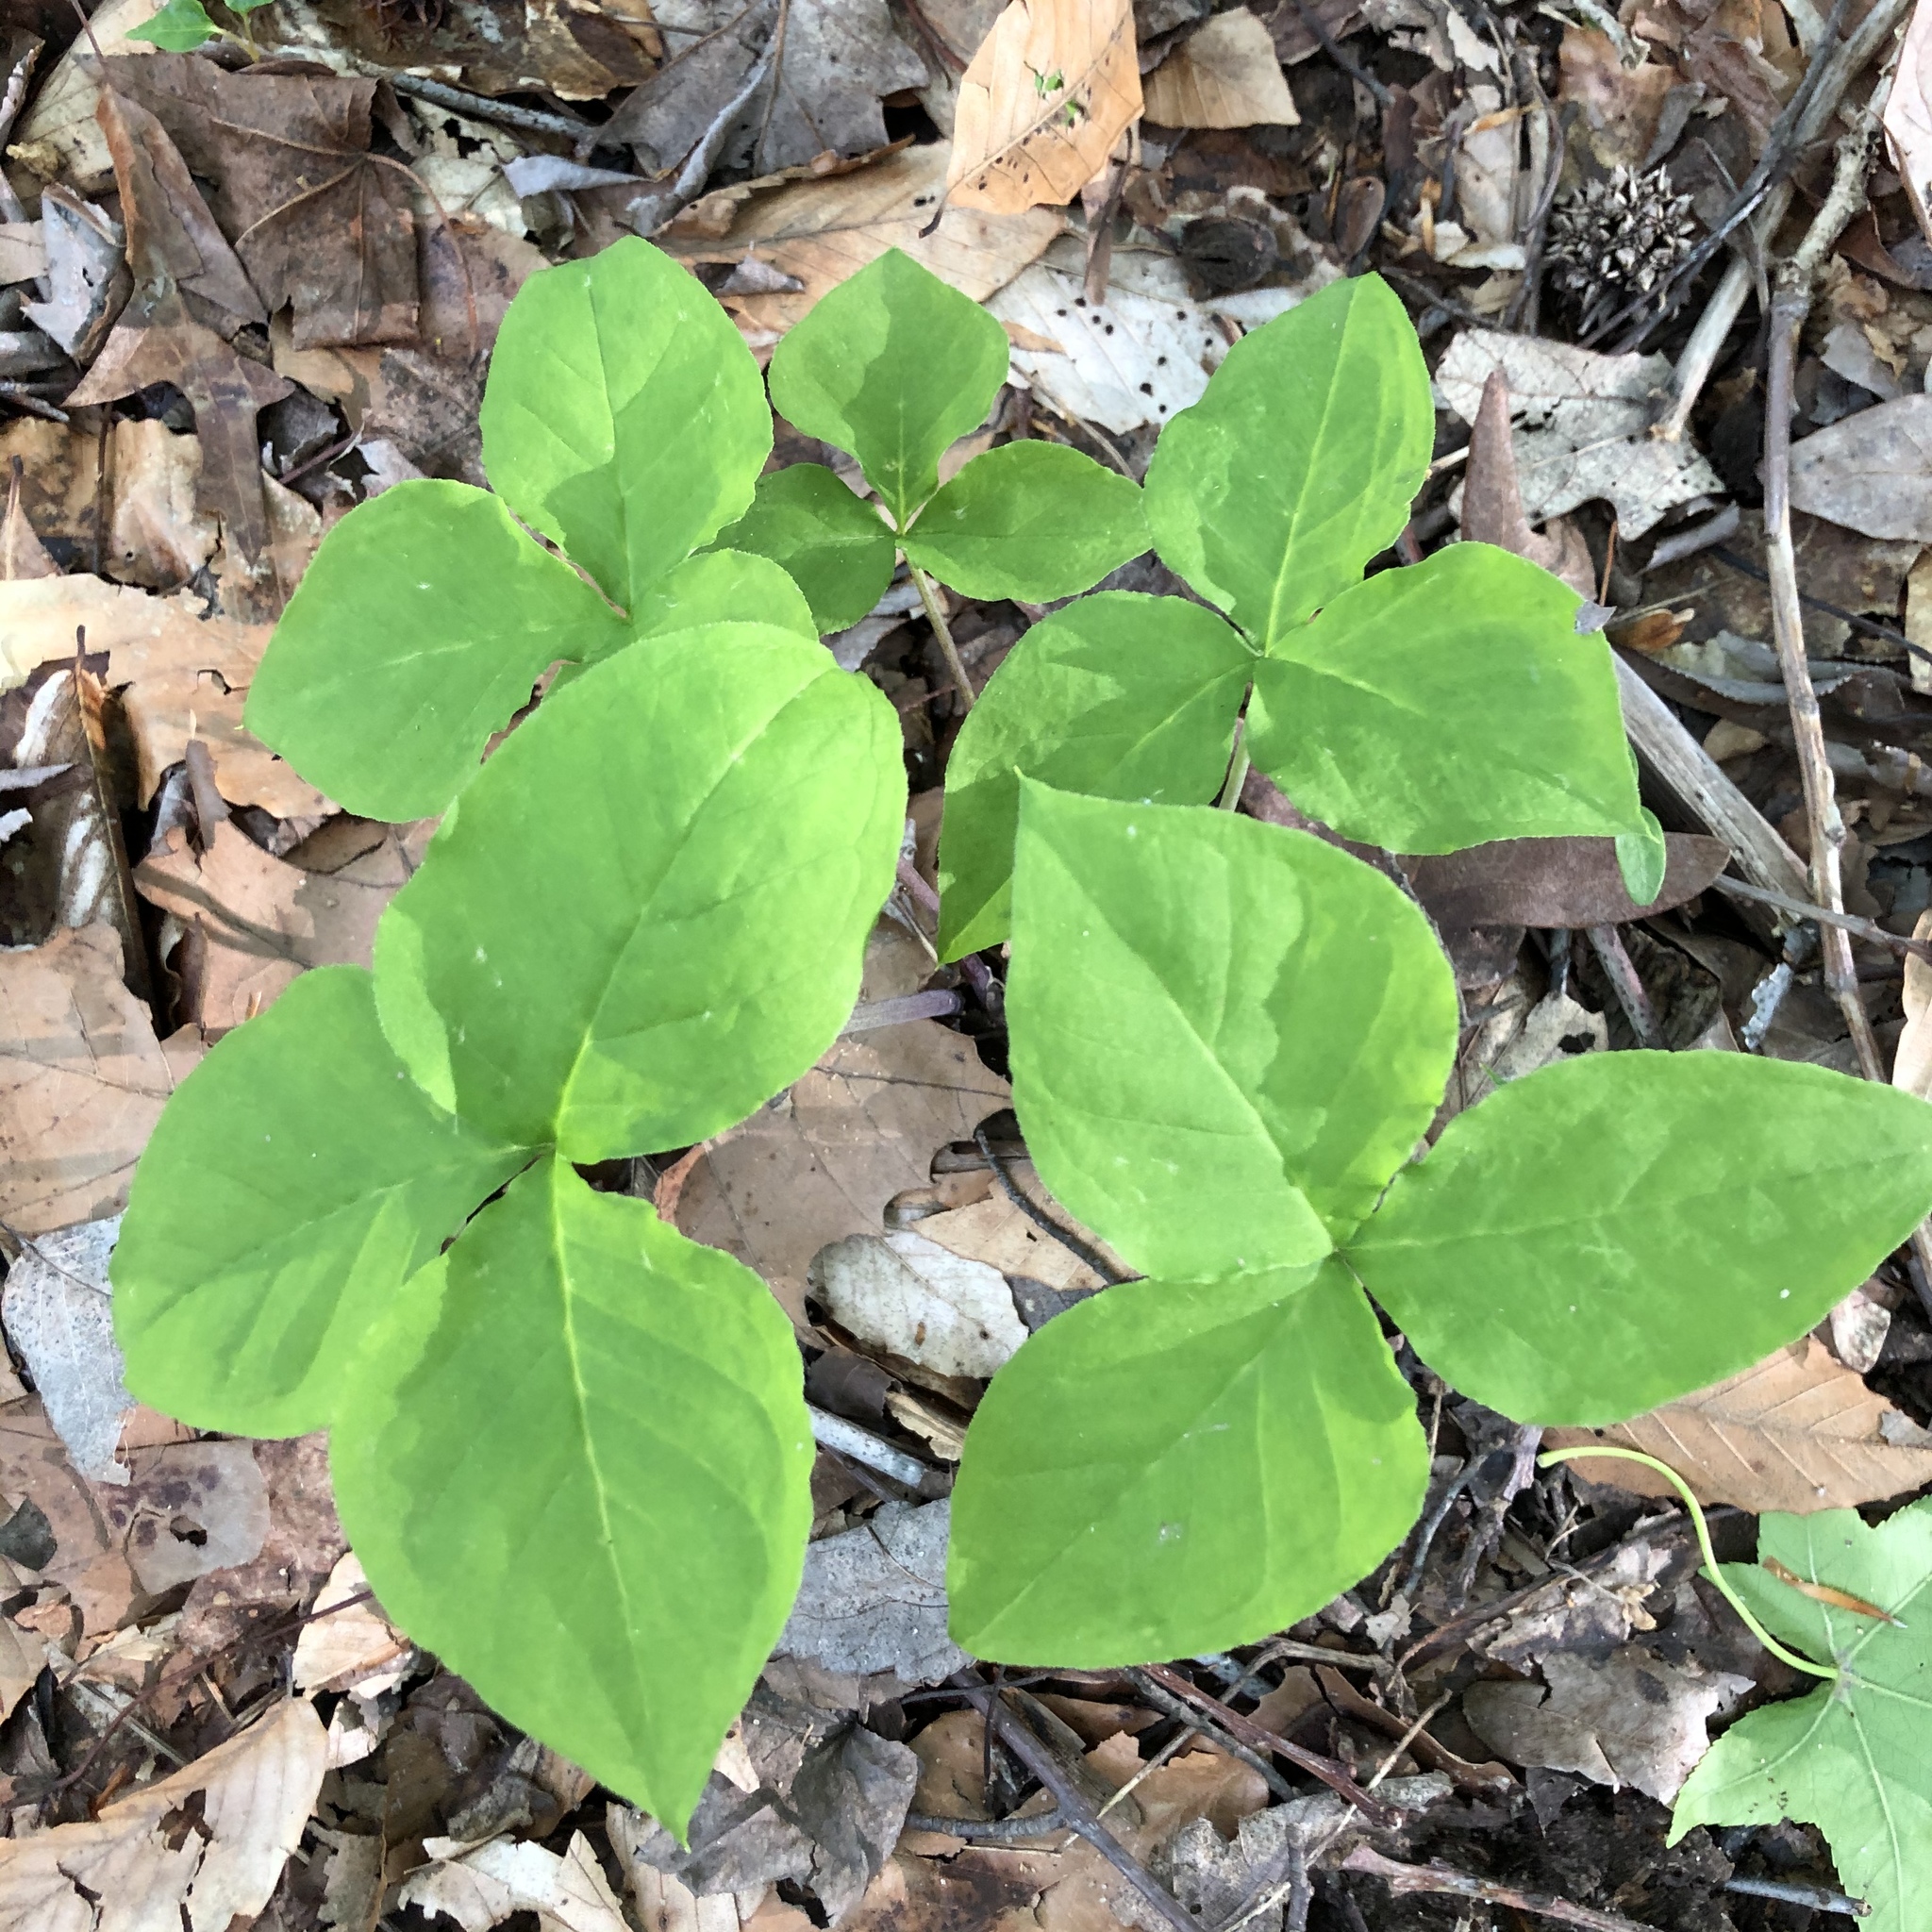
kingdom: Plantae
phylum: Tracheophyta
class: Liliopsida
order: Alismatales
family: Araceae
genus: Arisaema
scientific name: Arisaema triphyllum
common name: Jack-in-the-pulpit
